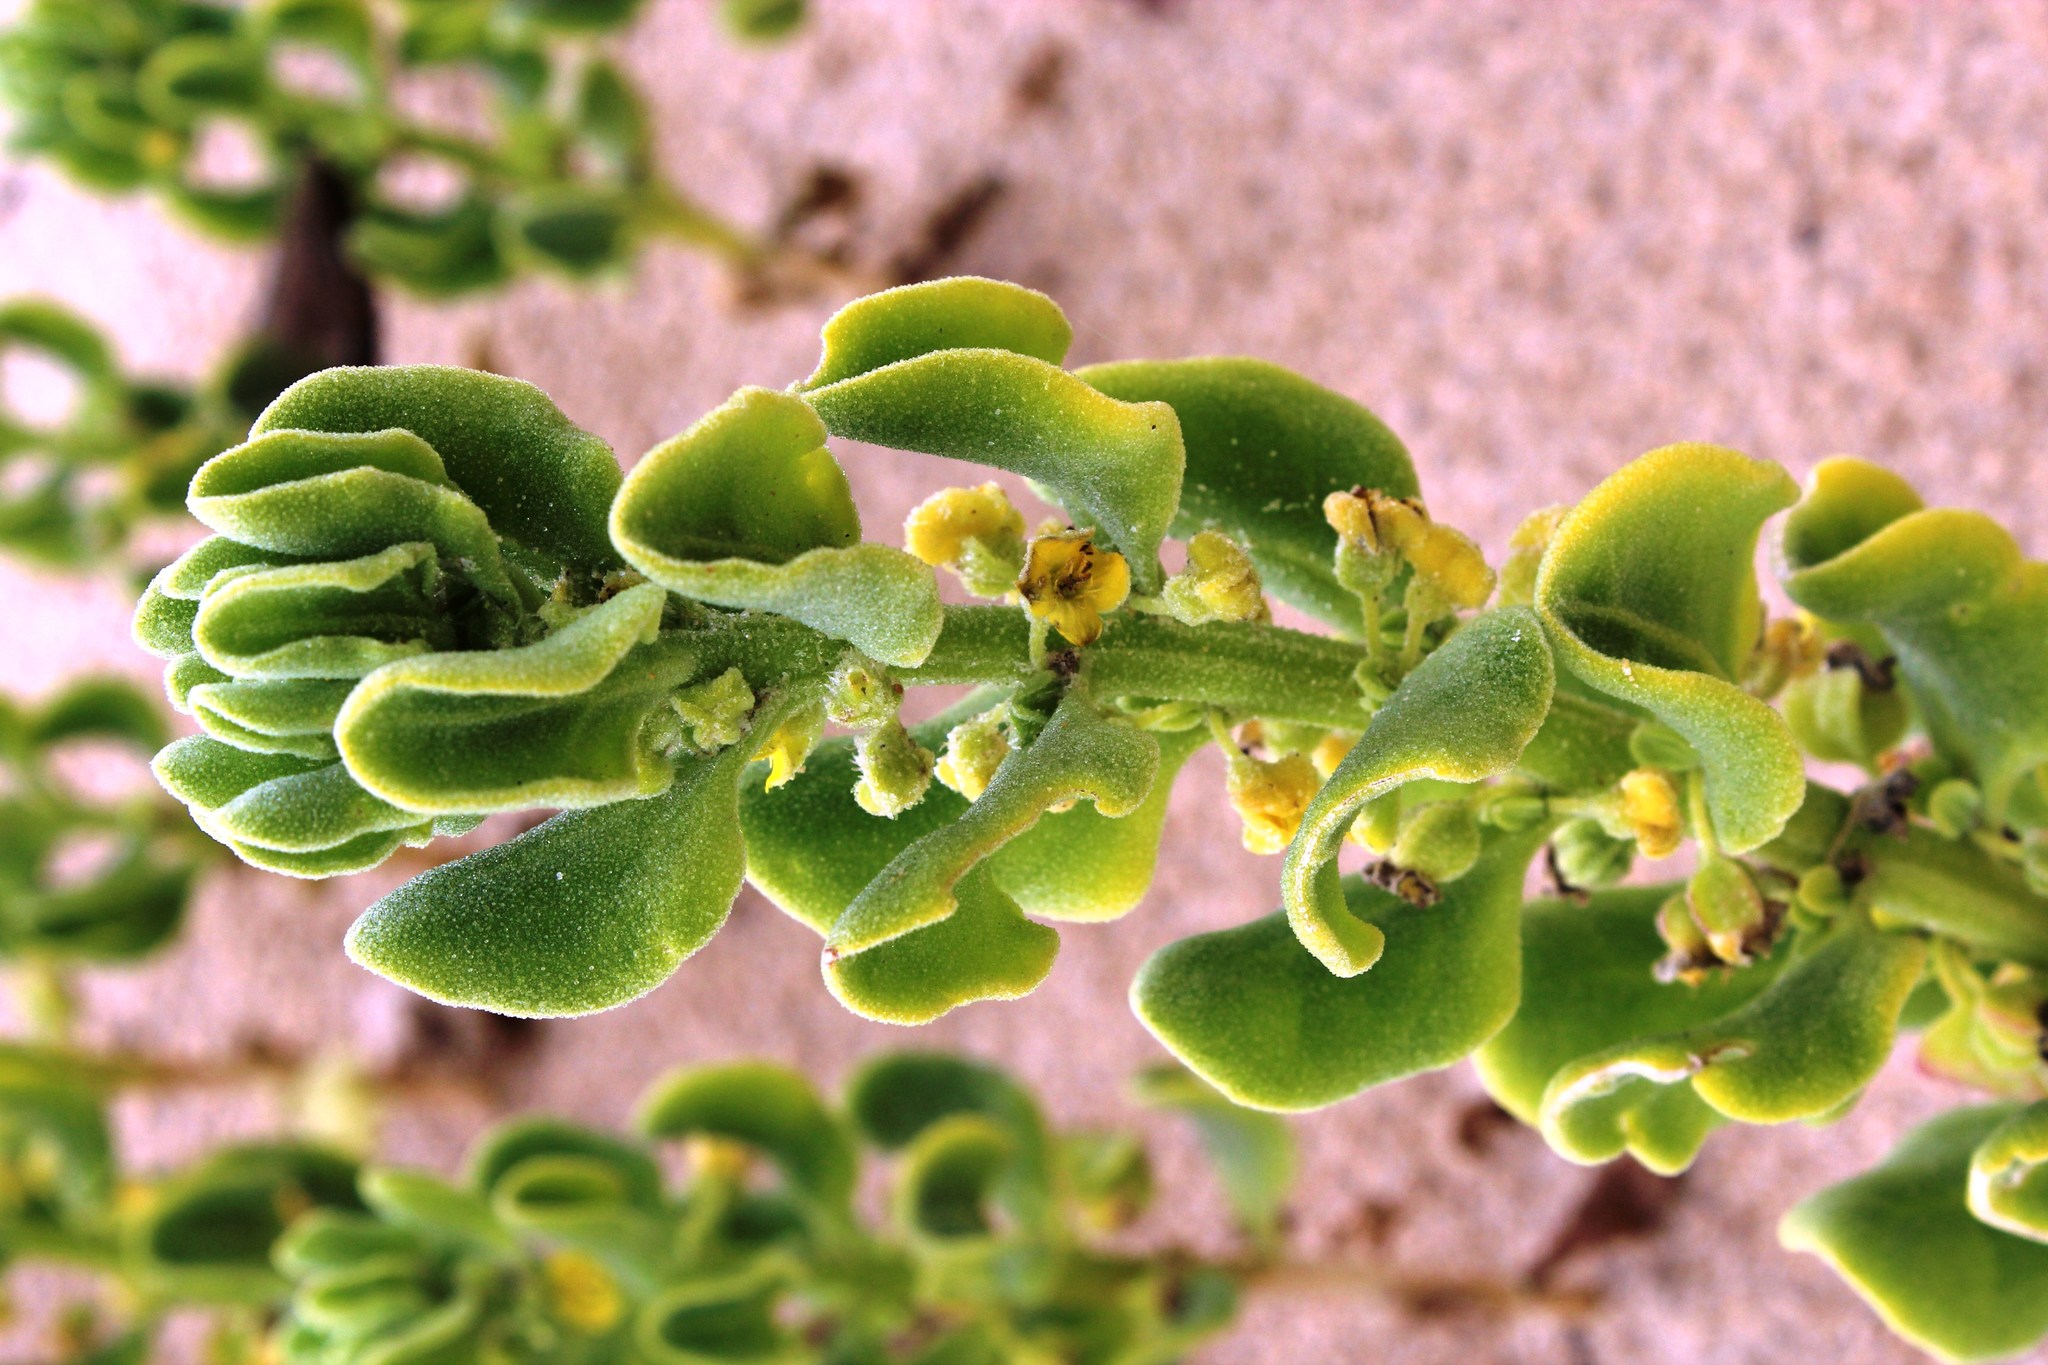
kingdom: Plantae
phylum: Tracheophyta
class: Magnoliopsida
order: Caryophyllales
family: Aizoaceae
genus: Tetragonia
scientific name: Tetragonia fruticosa
